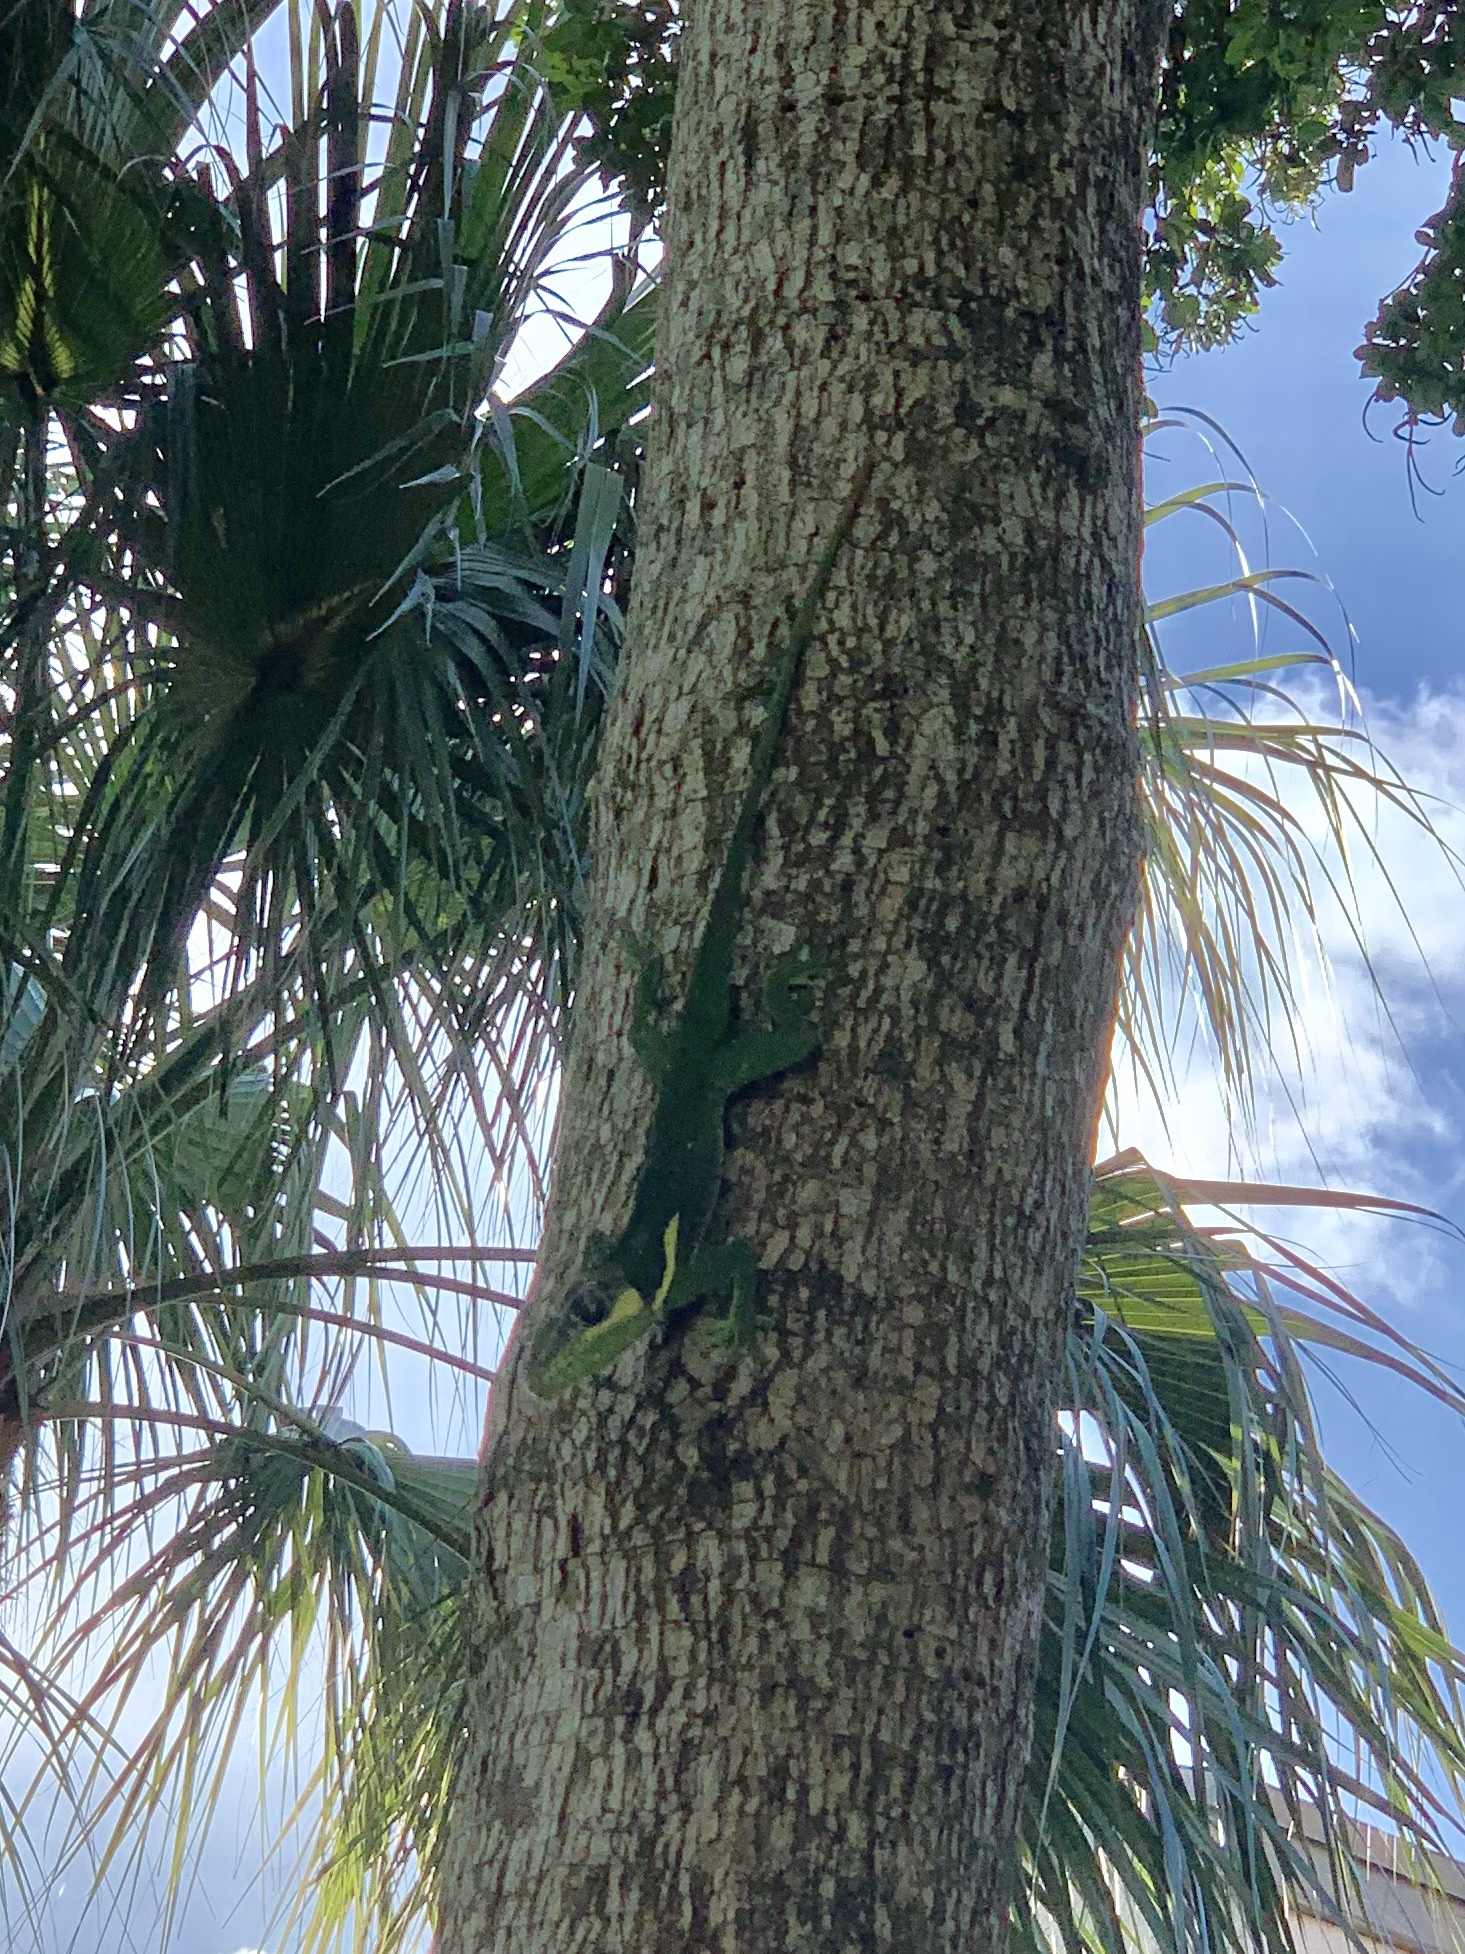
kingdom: Animalia
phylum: Chordata
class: Squamata
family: Dactyloidae
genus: Anolis
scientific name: Anolis equestris
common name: Knight anole
